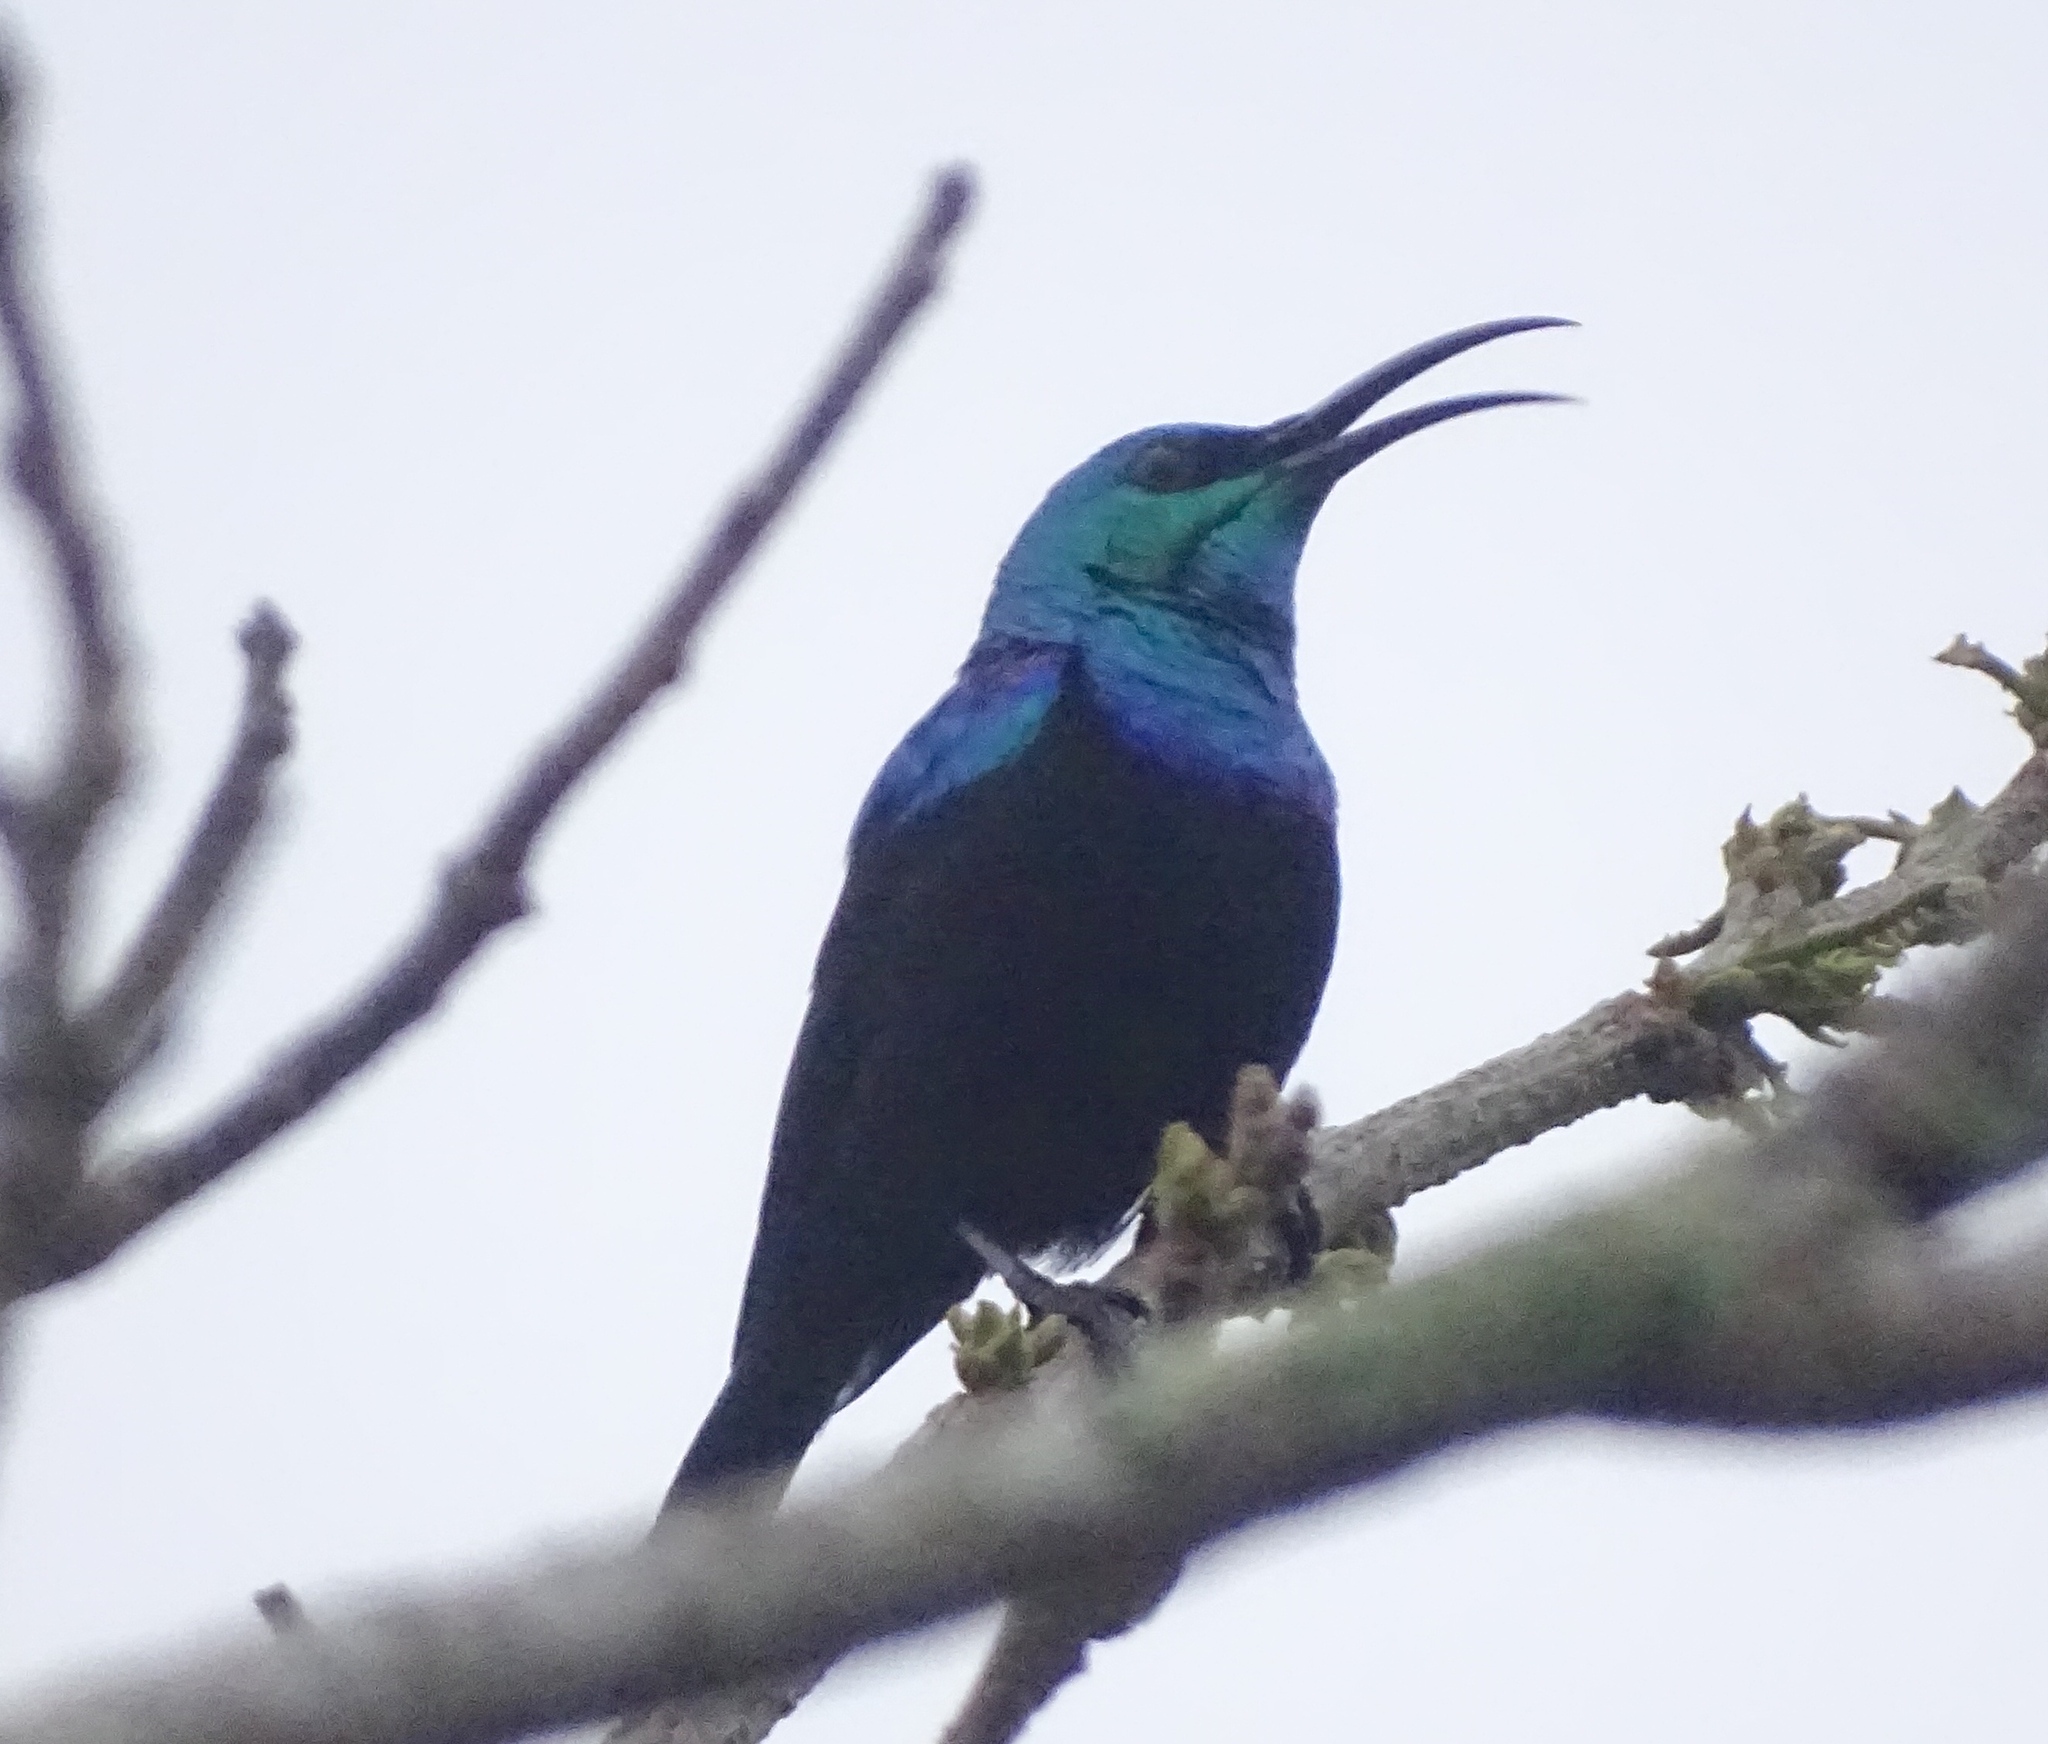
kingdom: Animalia
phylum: Chordata
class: Aves
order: Passeriformes
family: Nectariniidae
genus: Cinnyris
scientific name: Cinnyris notatus
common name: Malagasy green sunbird
